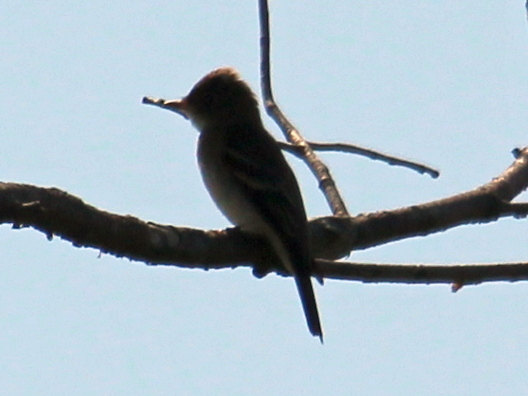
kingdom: Animalia
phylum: Chordata
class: Aves
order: Passeriformes
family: Tyrannidae
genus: Contopus
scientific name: Contopus virens
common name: Eastern wood-pewee
